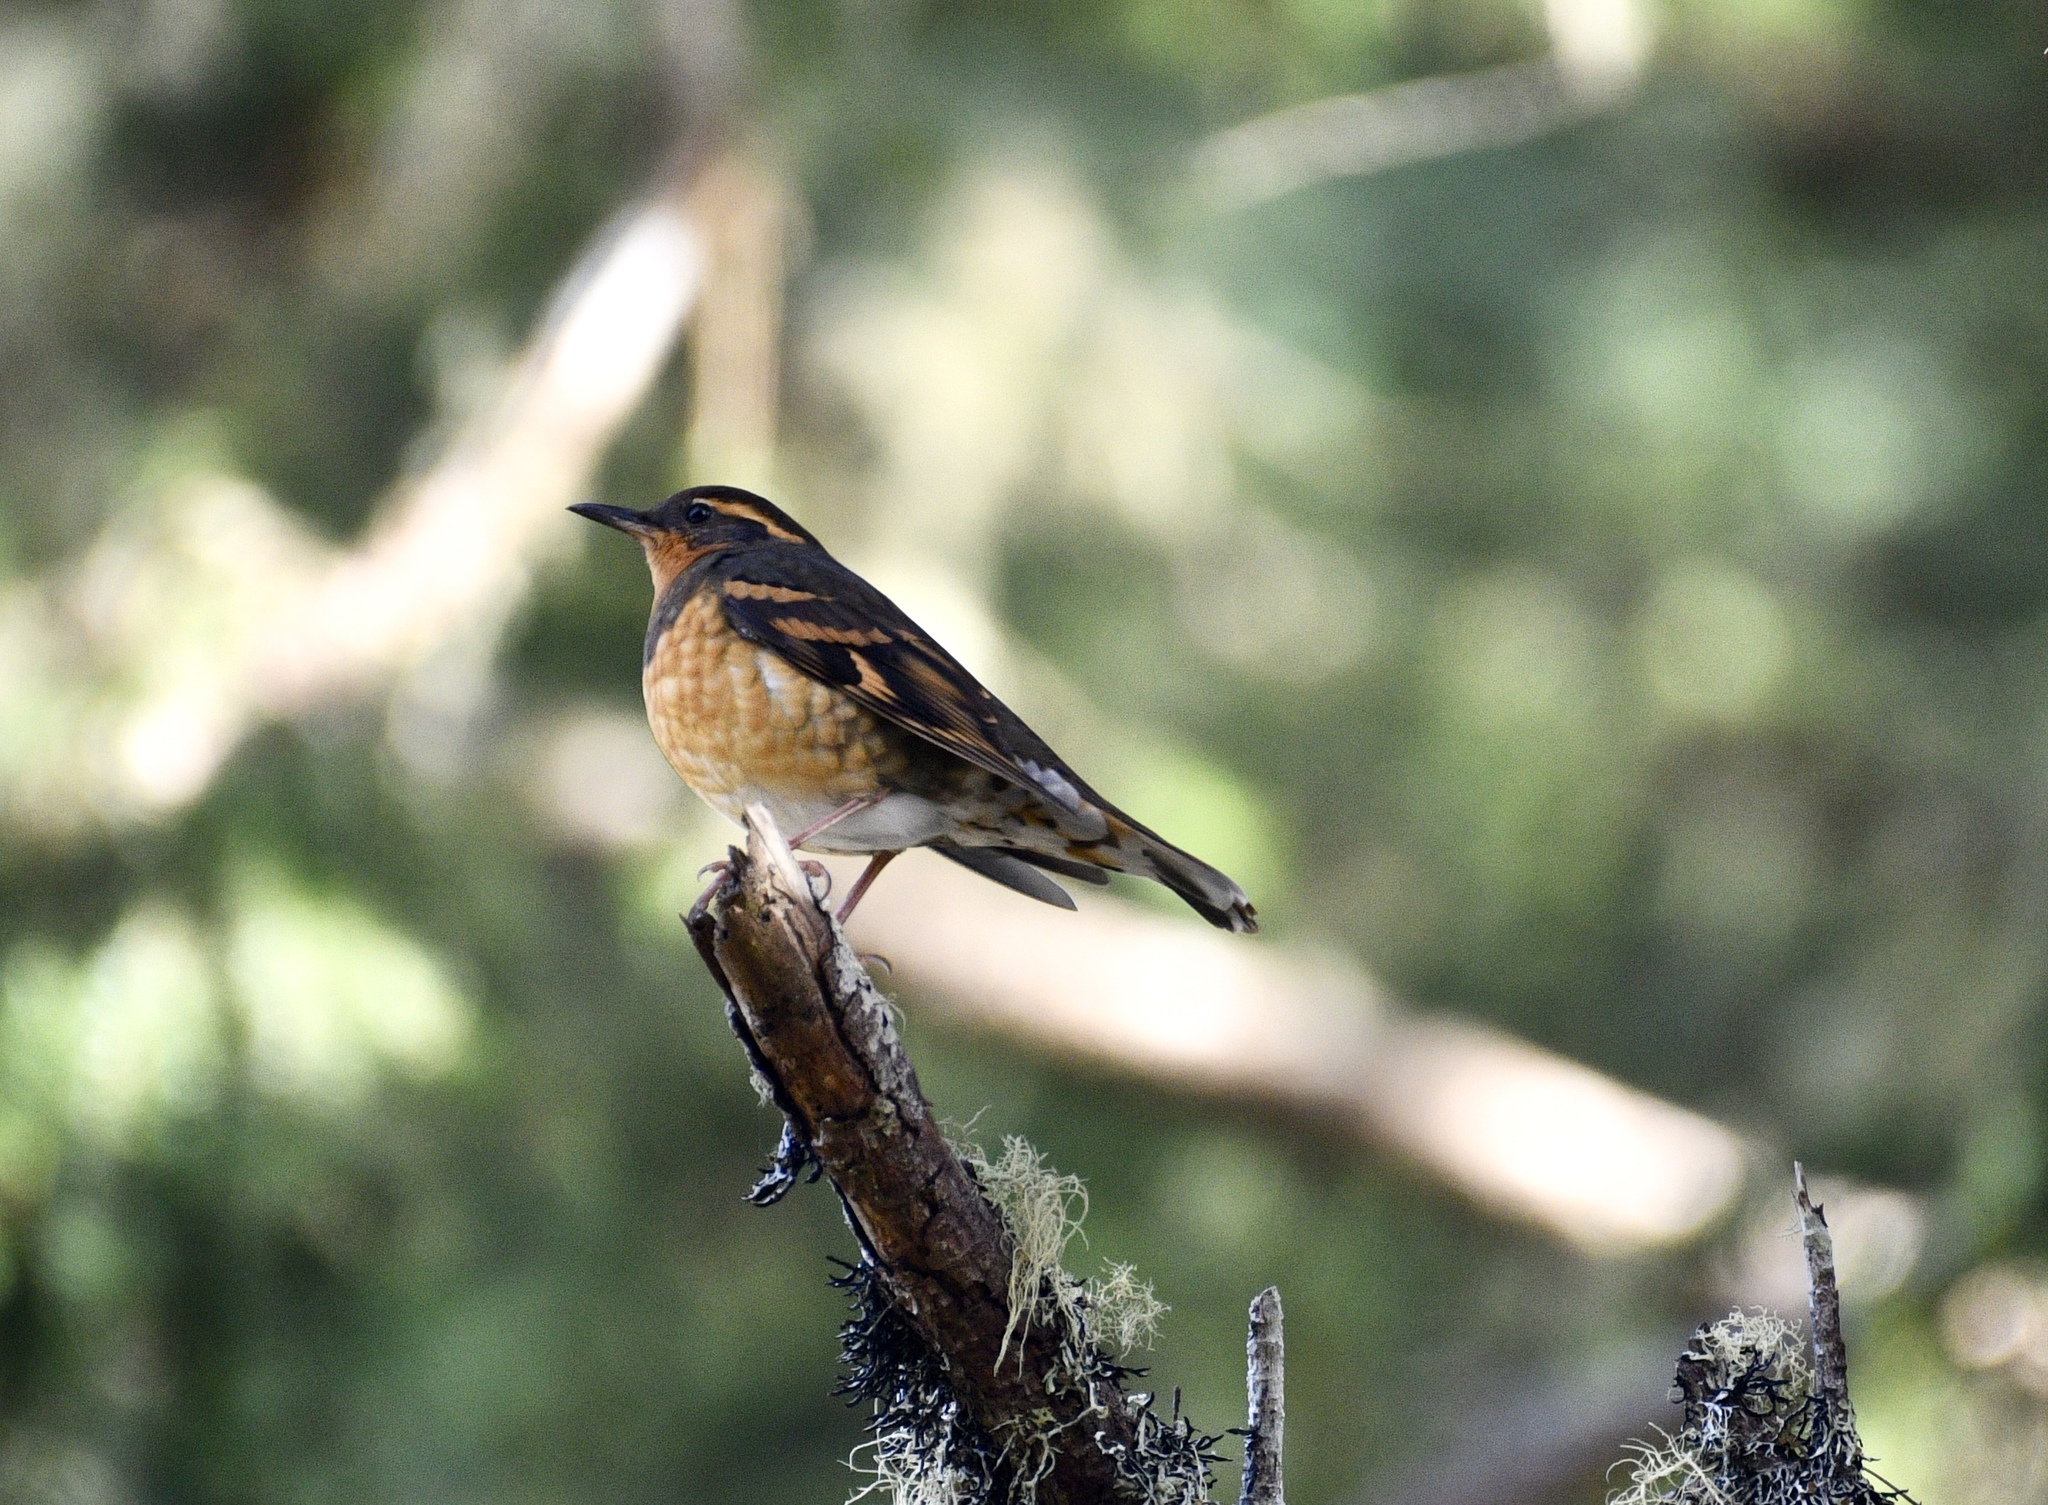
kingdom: Animalia
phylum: Chordata
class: Aves
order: Passeriformes
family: Turdidae
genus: Ixoreus
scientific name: Ixoreus naevius
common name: Varied thrush
